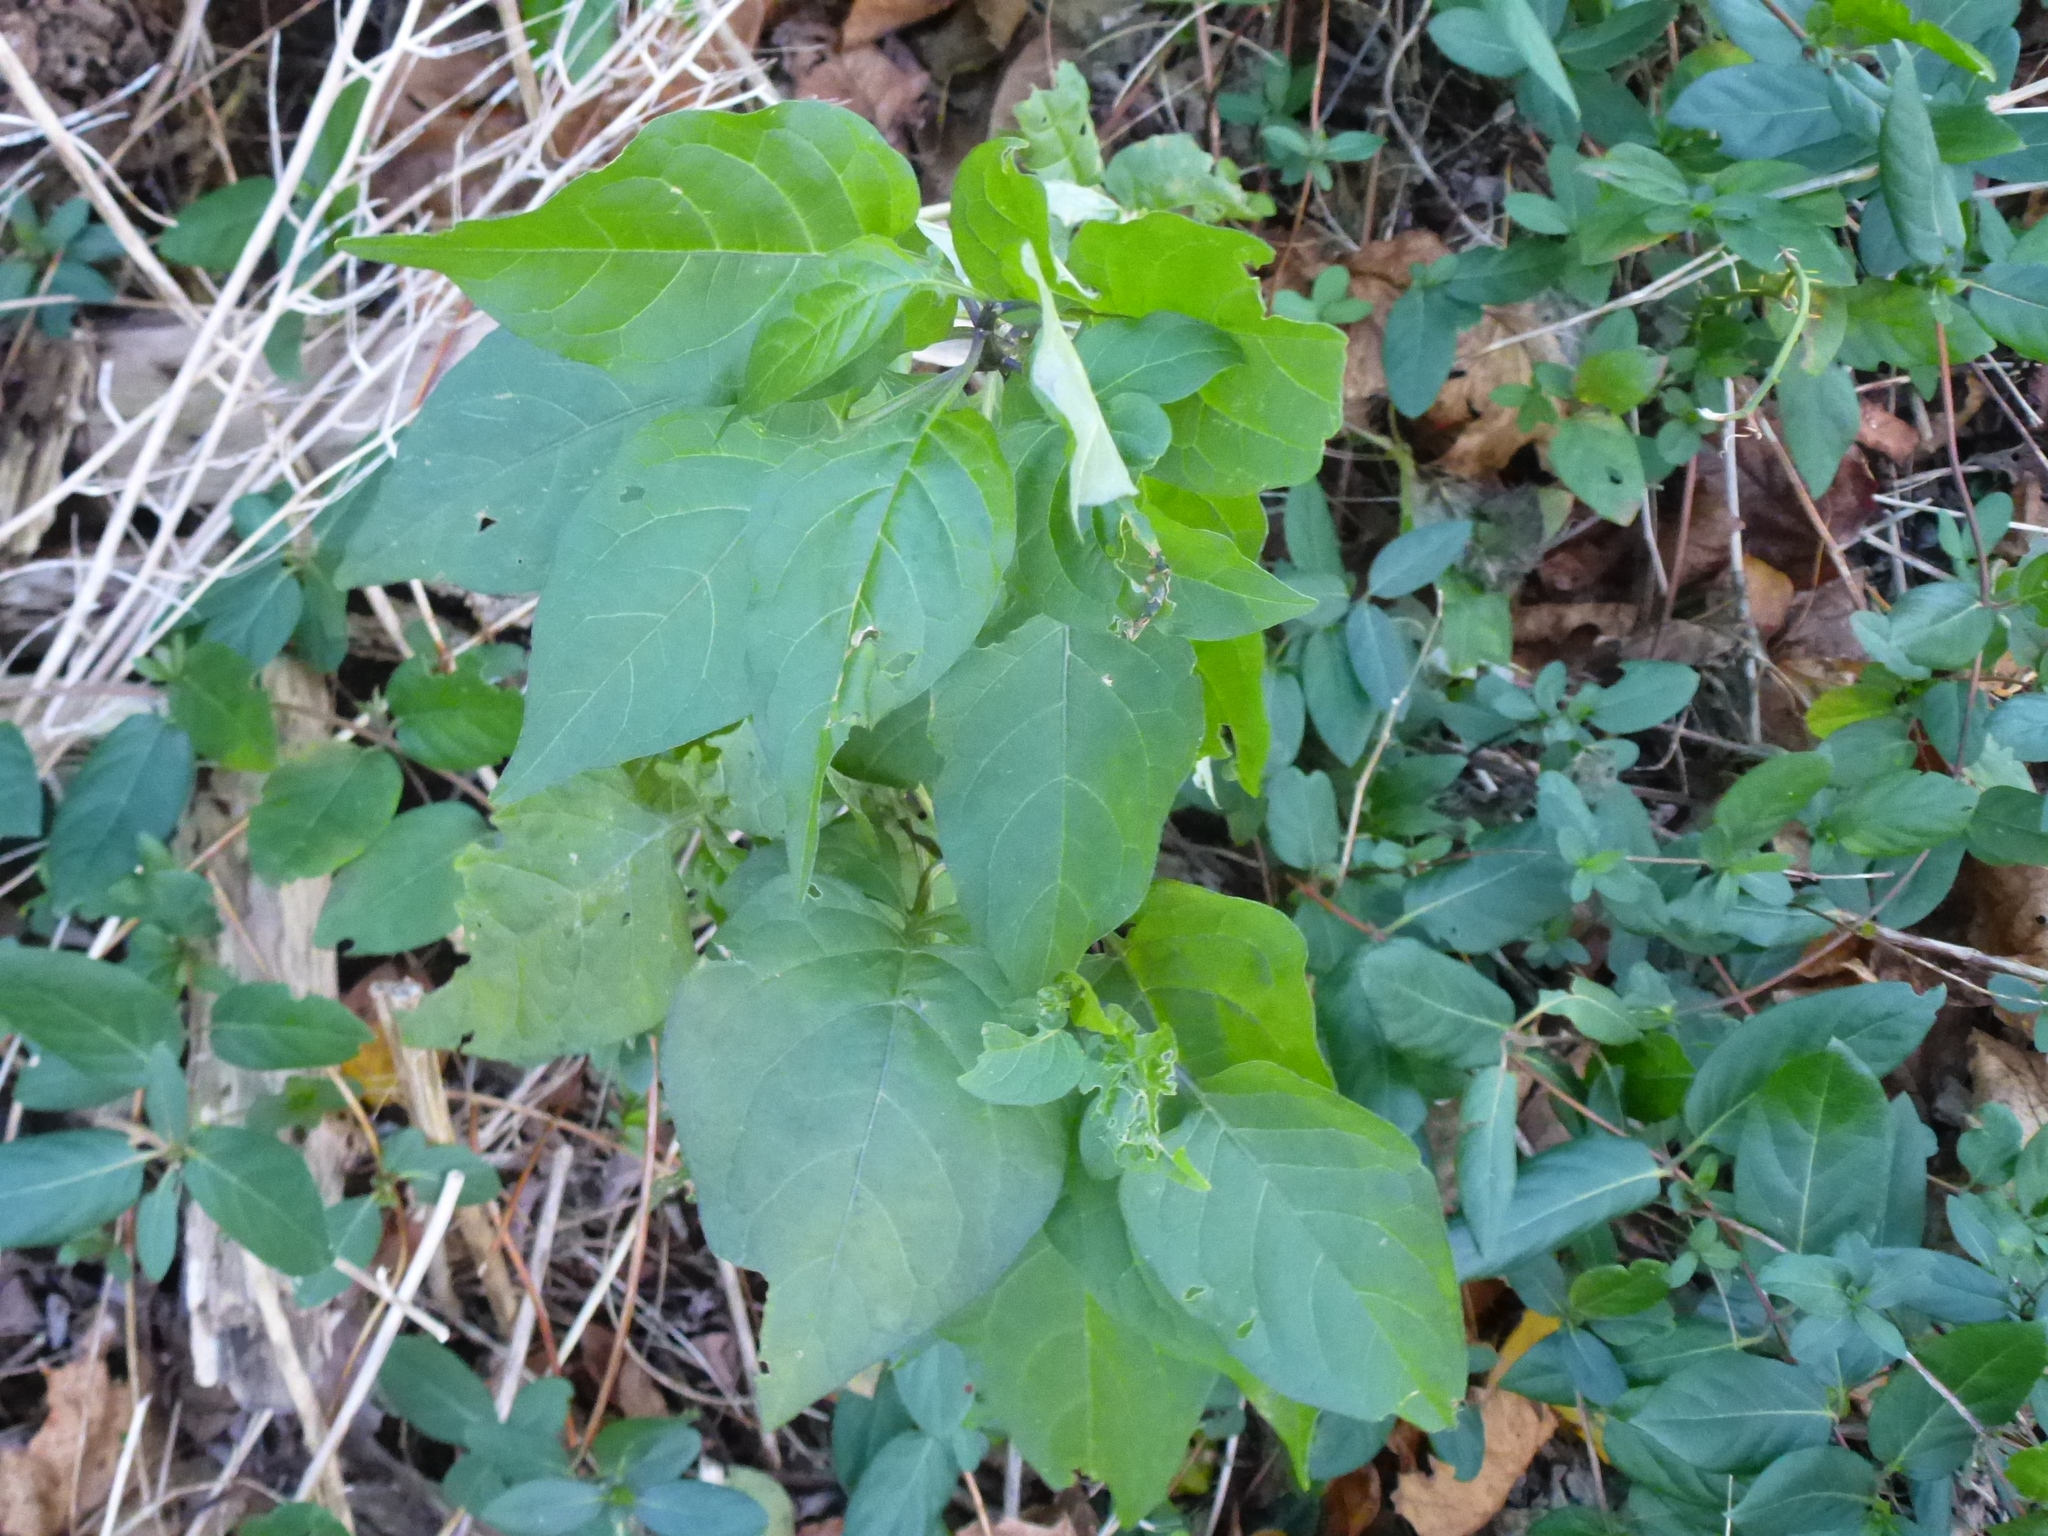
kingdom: Plantae
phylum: Tracheophyta
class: Magnoliopsida
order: Solanales
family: Solanaceae
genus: Solanum
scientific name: Solanum dulcamara
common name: Climbing nightshade
